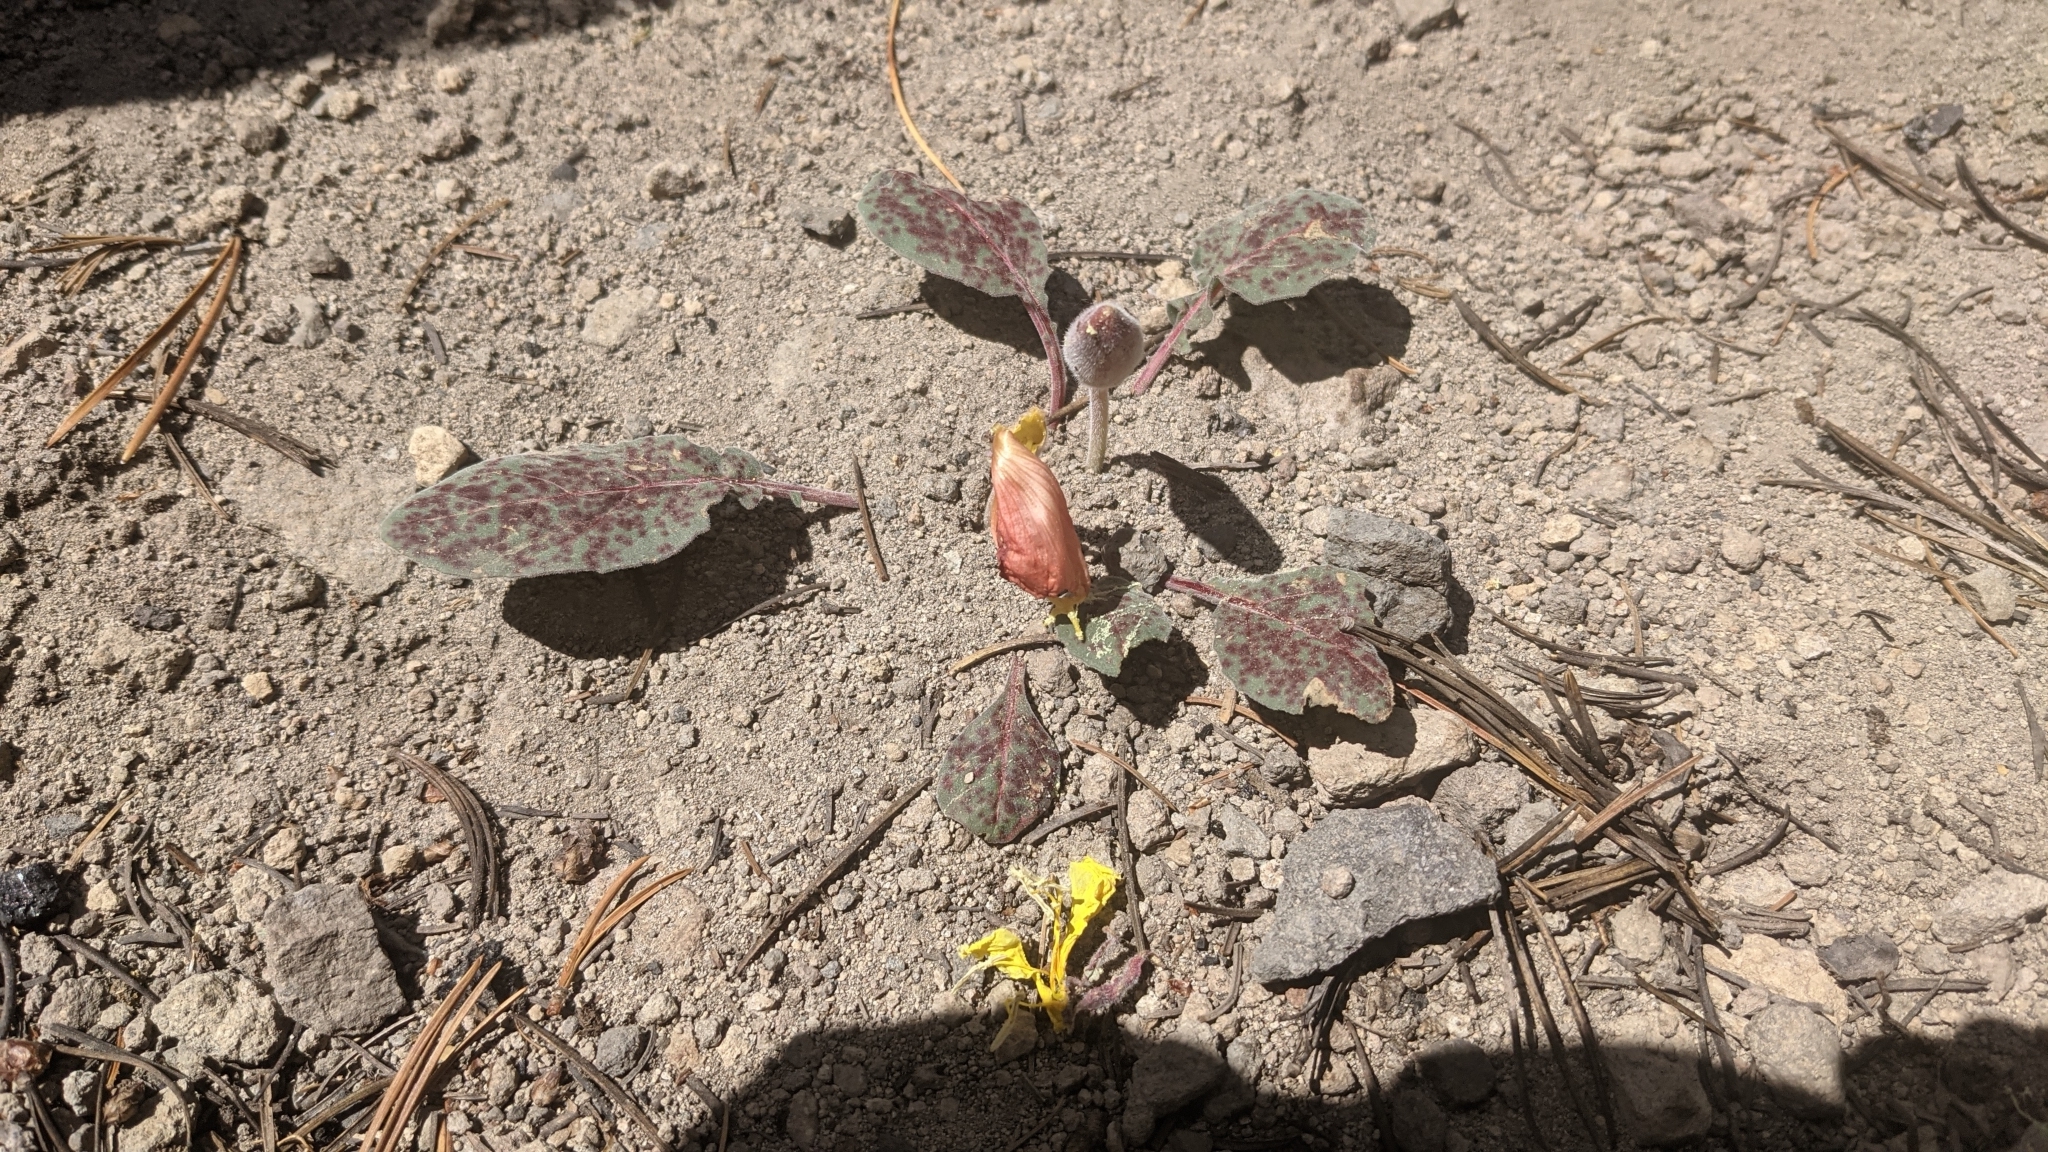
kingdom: Plantae
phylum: Tracheophyta
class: Magnoliopsida
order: Myrtales
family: Onagraceae
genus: Oenothera
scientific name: Oenothera xylocarpa
